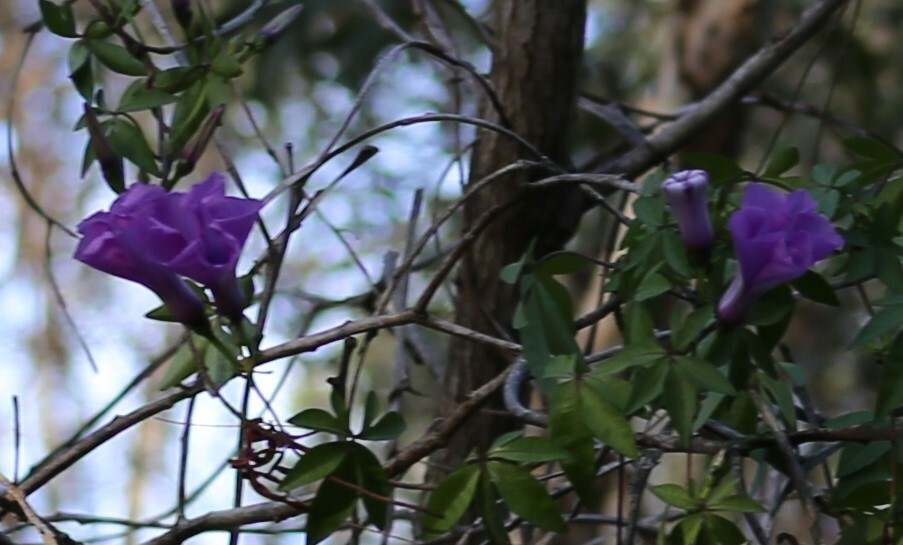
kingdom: Plantae
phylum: Tracheophyta
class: Magnoliopsida
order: Solanales
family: Convolvulaceae
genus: Ipomoea
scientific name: Ipomoea cairica
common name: Mile a minute vine
